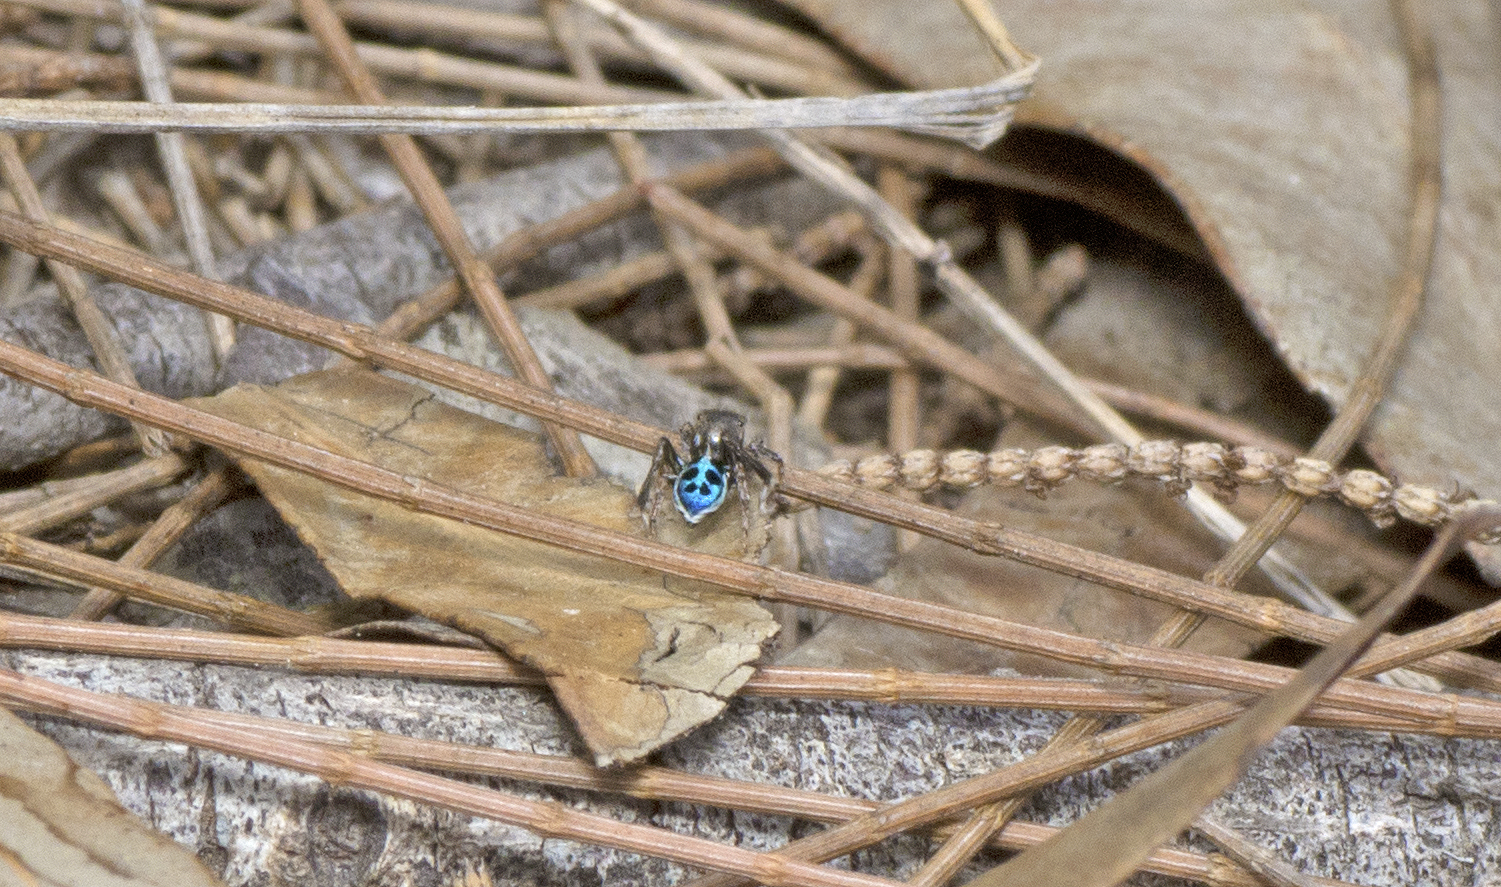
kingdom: Animalia
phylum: Arthropoda
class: Arachnida
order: Araneae
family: Salticidae
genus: Maratus
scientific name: Maratus nigromaculatus
